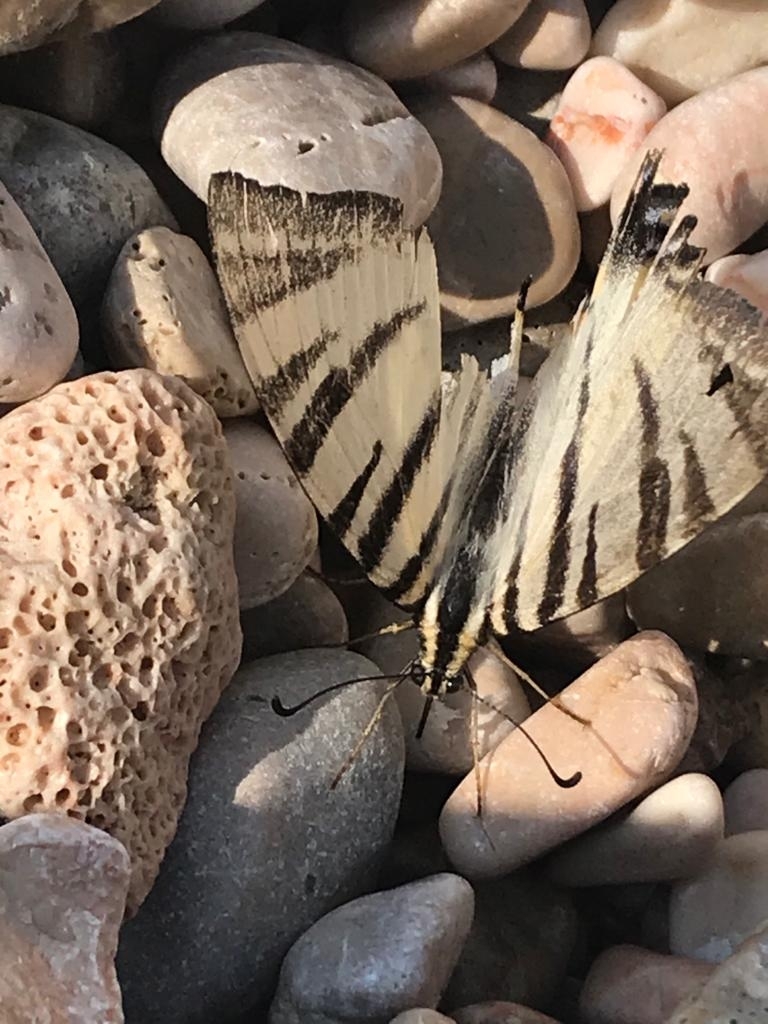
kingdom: Animalia
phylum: Arthropoda
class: Insecta
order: Lepidoptera
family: Papilionidae
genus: Iphiclides
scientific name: Iphiclides podalirius
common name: Scarce swallowtail
